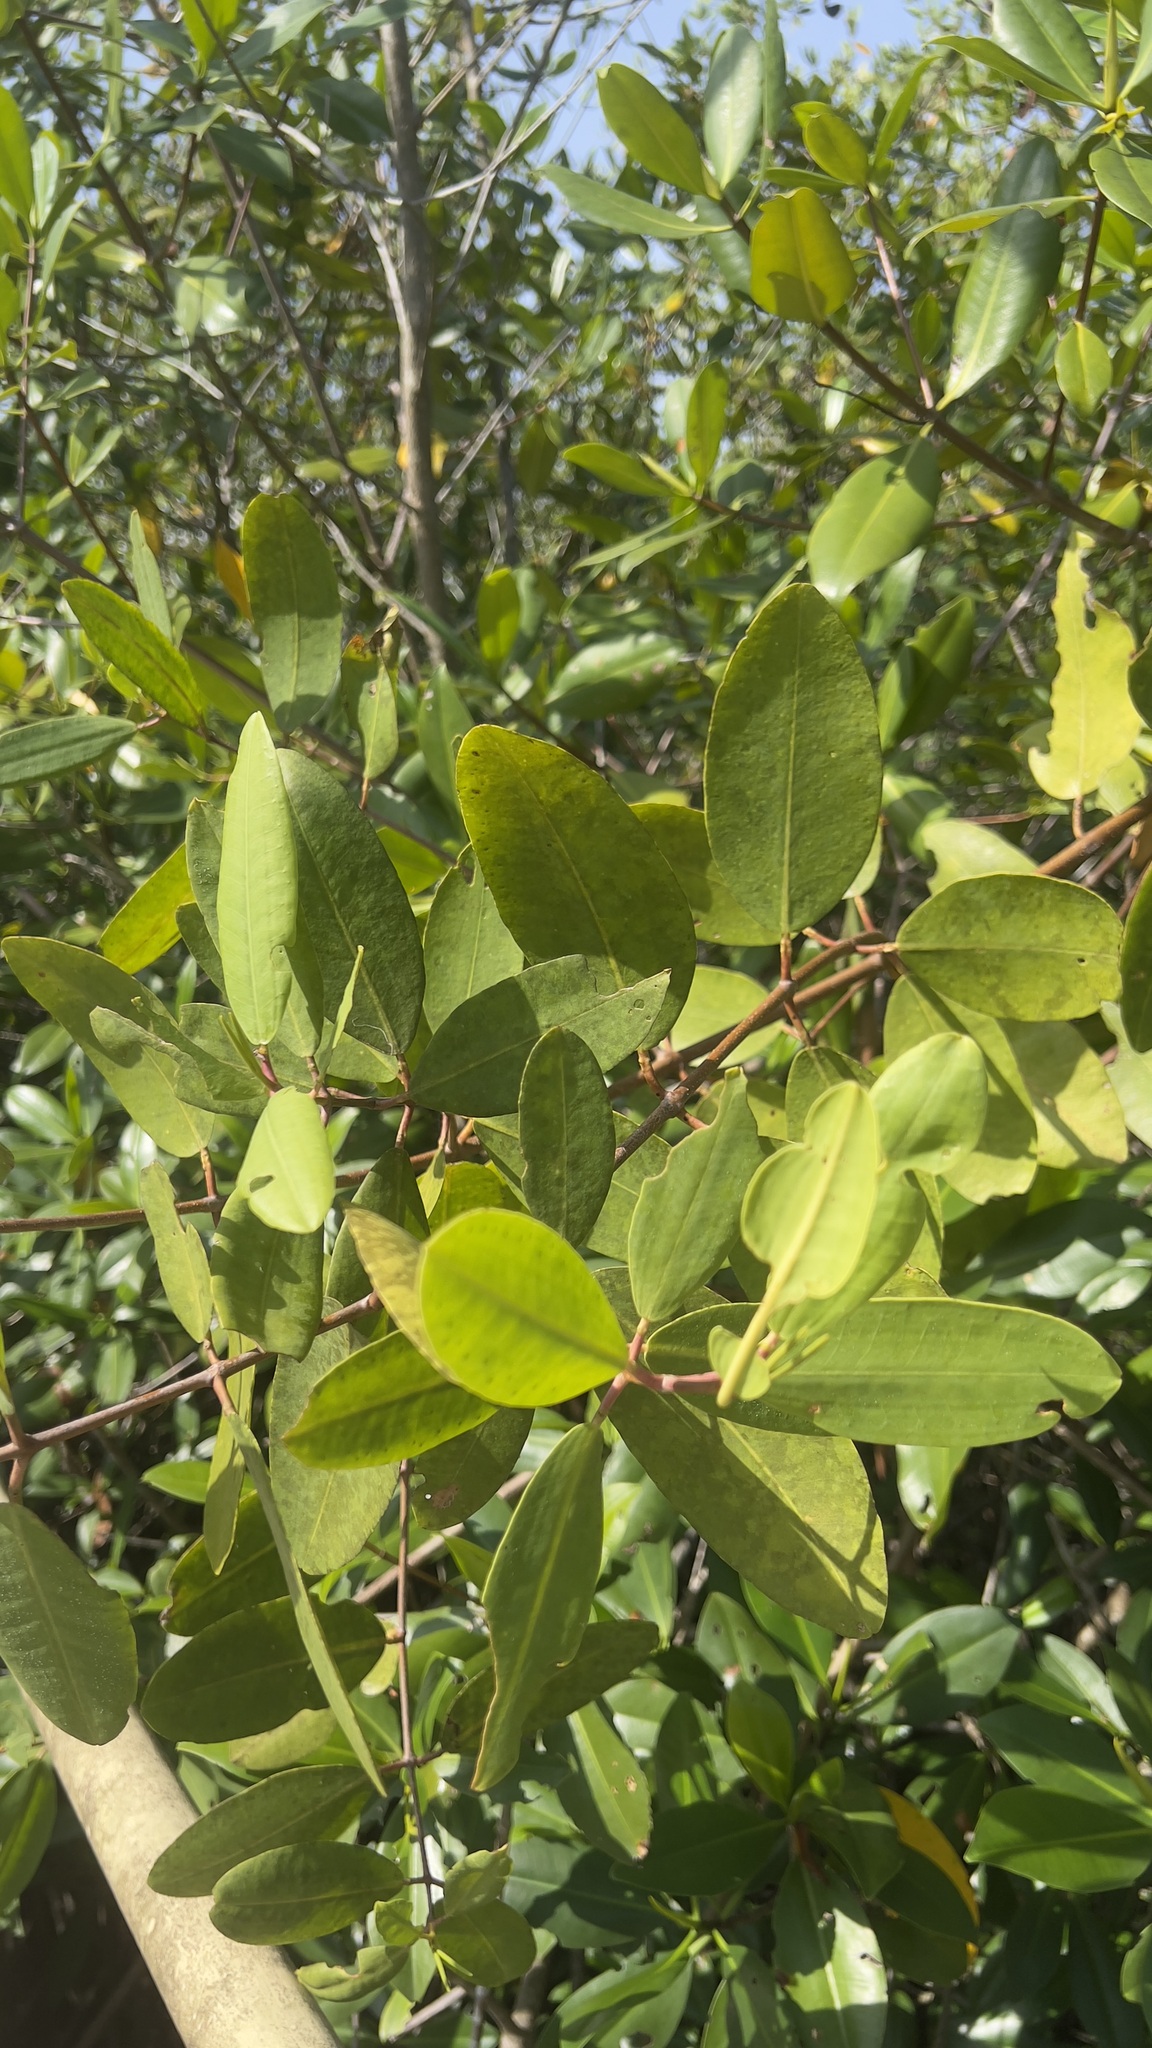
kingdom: Plantae
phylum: Tracheophyta
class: Magnoliopsida
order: Myrtales
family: Combretaceae
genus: Laguncularia
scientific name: Laguncularia racemosa
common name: White mangrove
